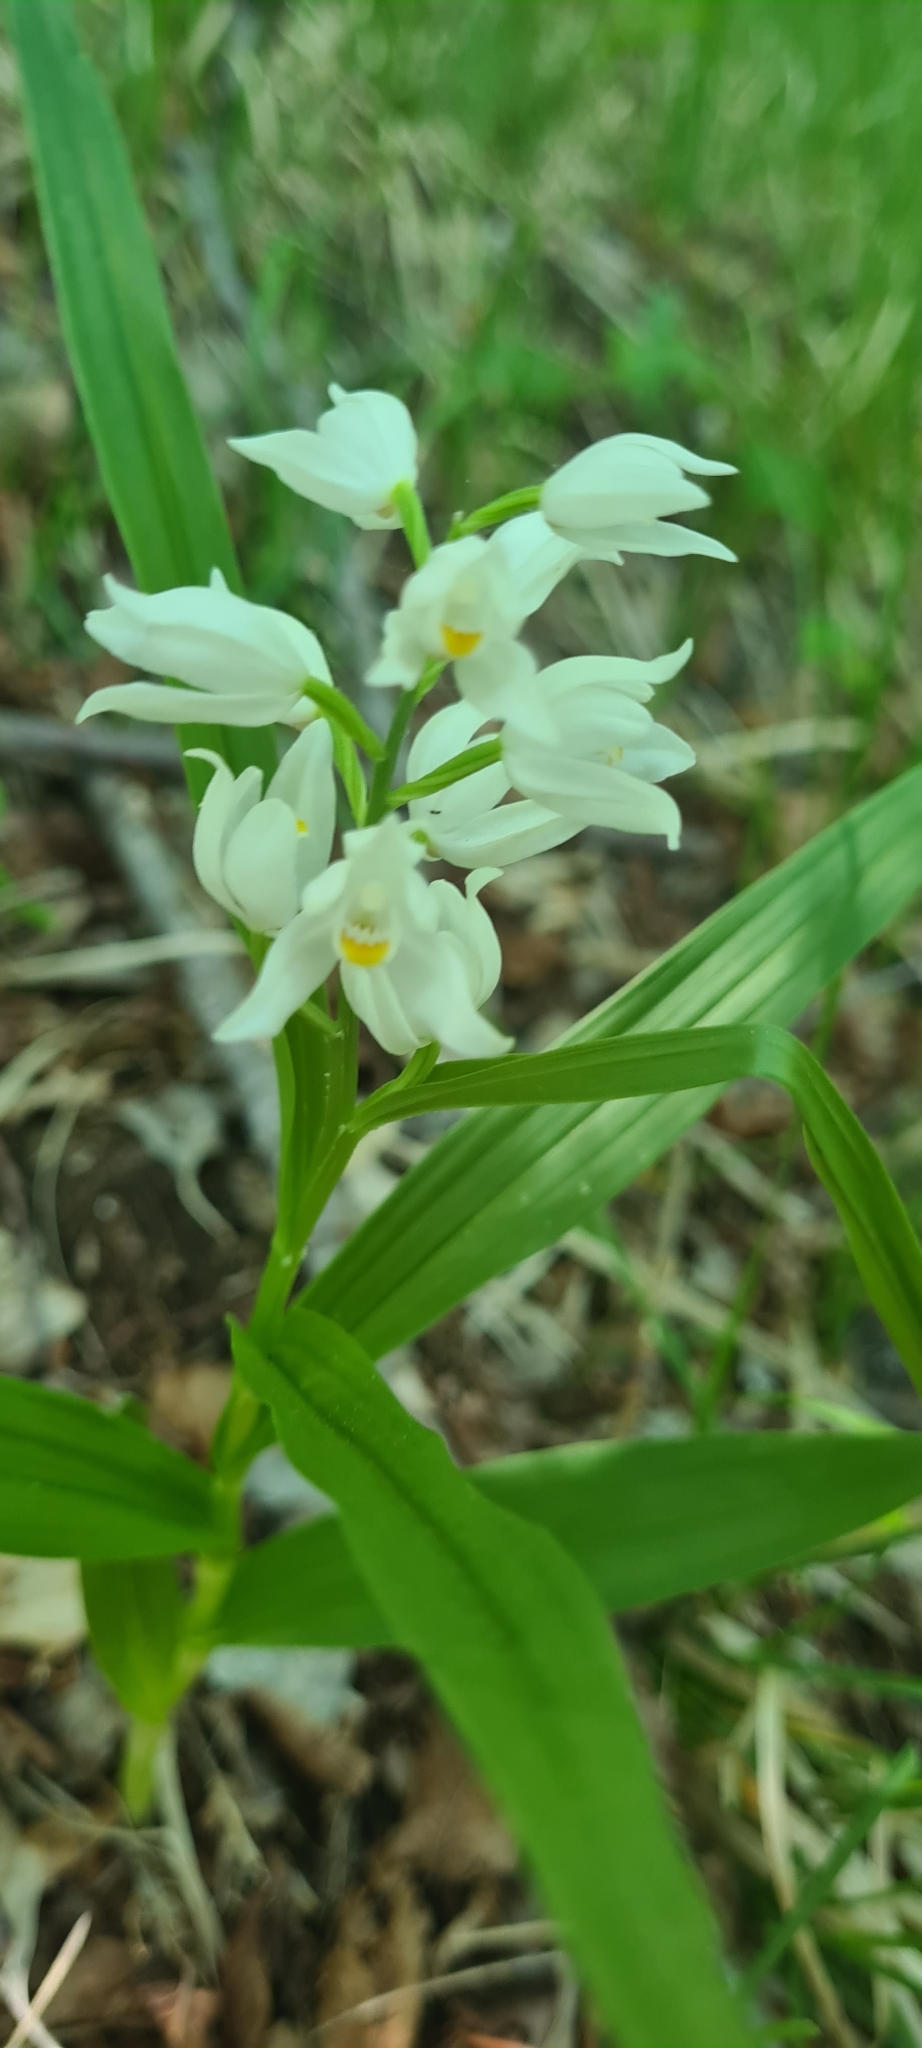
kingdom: Plantae
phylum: Tracheophyta
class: Liliopsida
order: Asparagales
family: Orchidaceae
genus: Cephalanthera
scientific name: Cephalanthera longifolia
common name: Narrow-leaved helleborine
